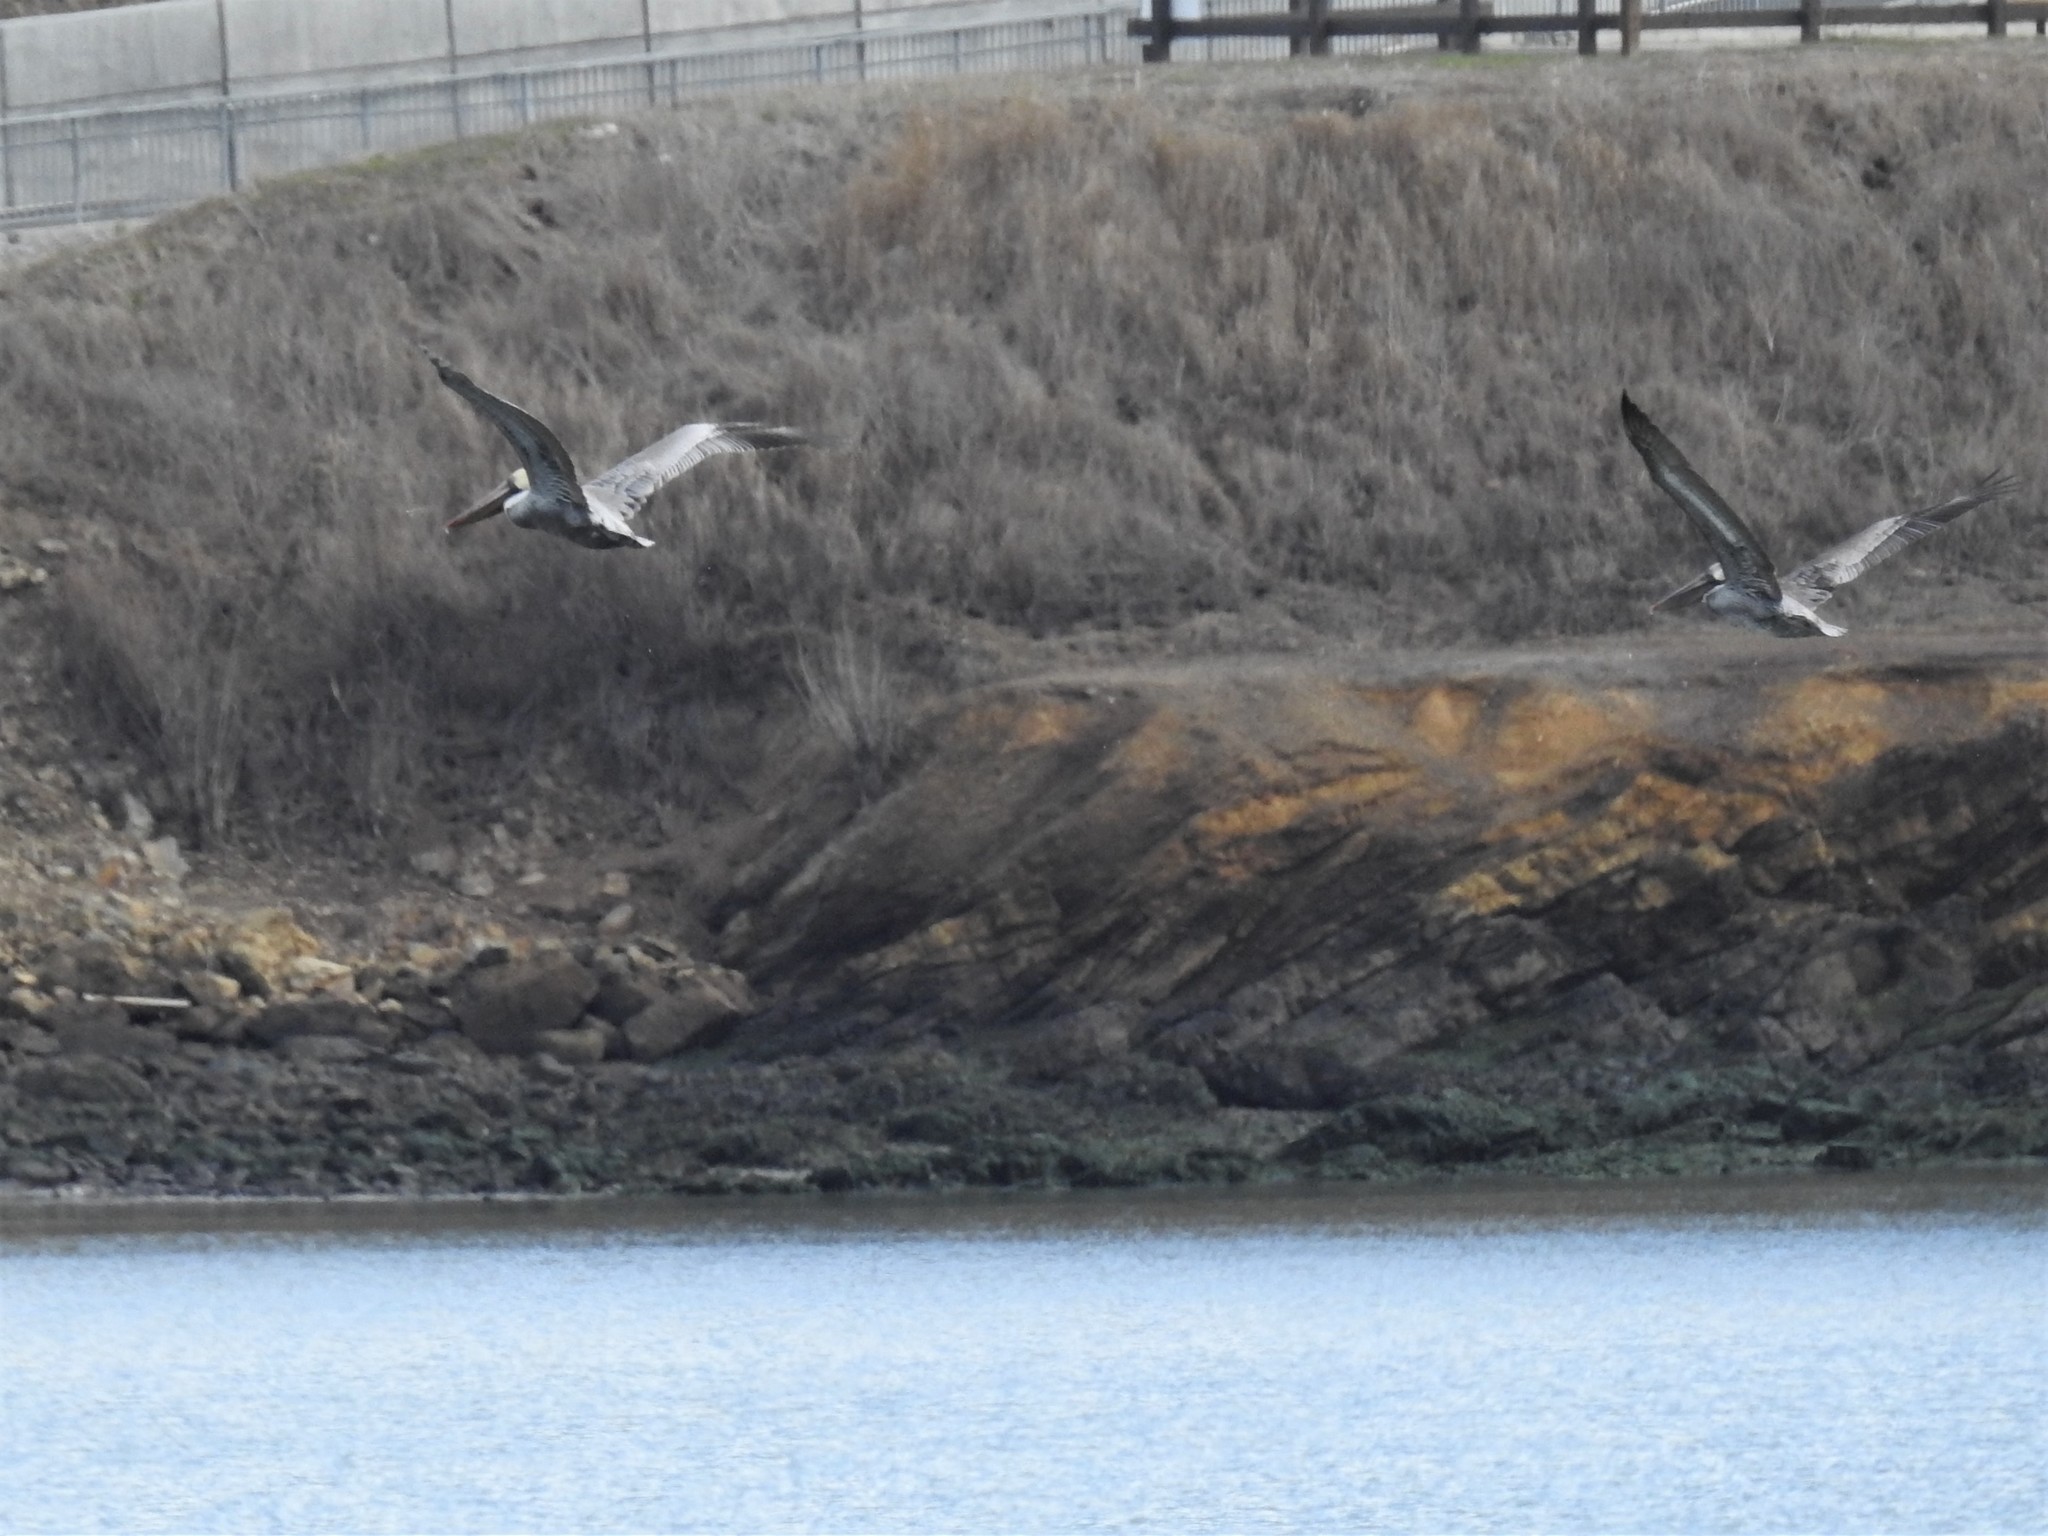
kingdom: Animalia
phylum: Chordata
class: Aves
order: Pelecaniformes
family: Pelecanidae
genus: Pelecanus
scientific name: Pelecanus occidentalis
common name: Brown pelican
